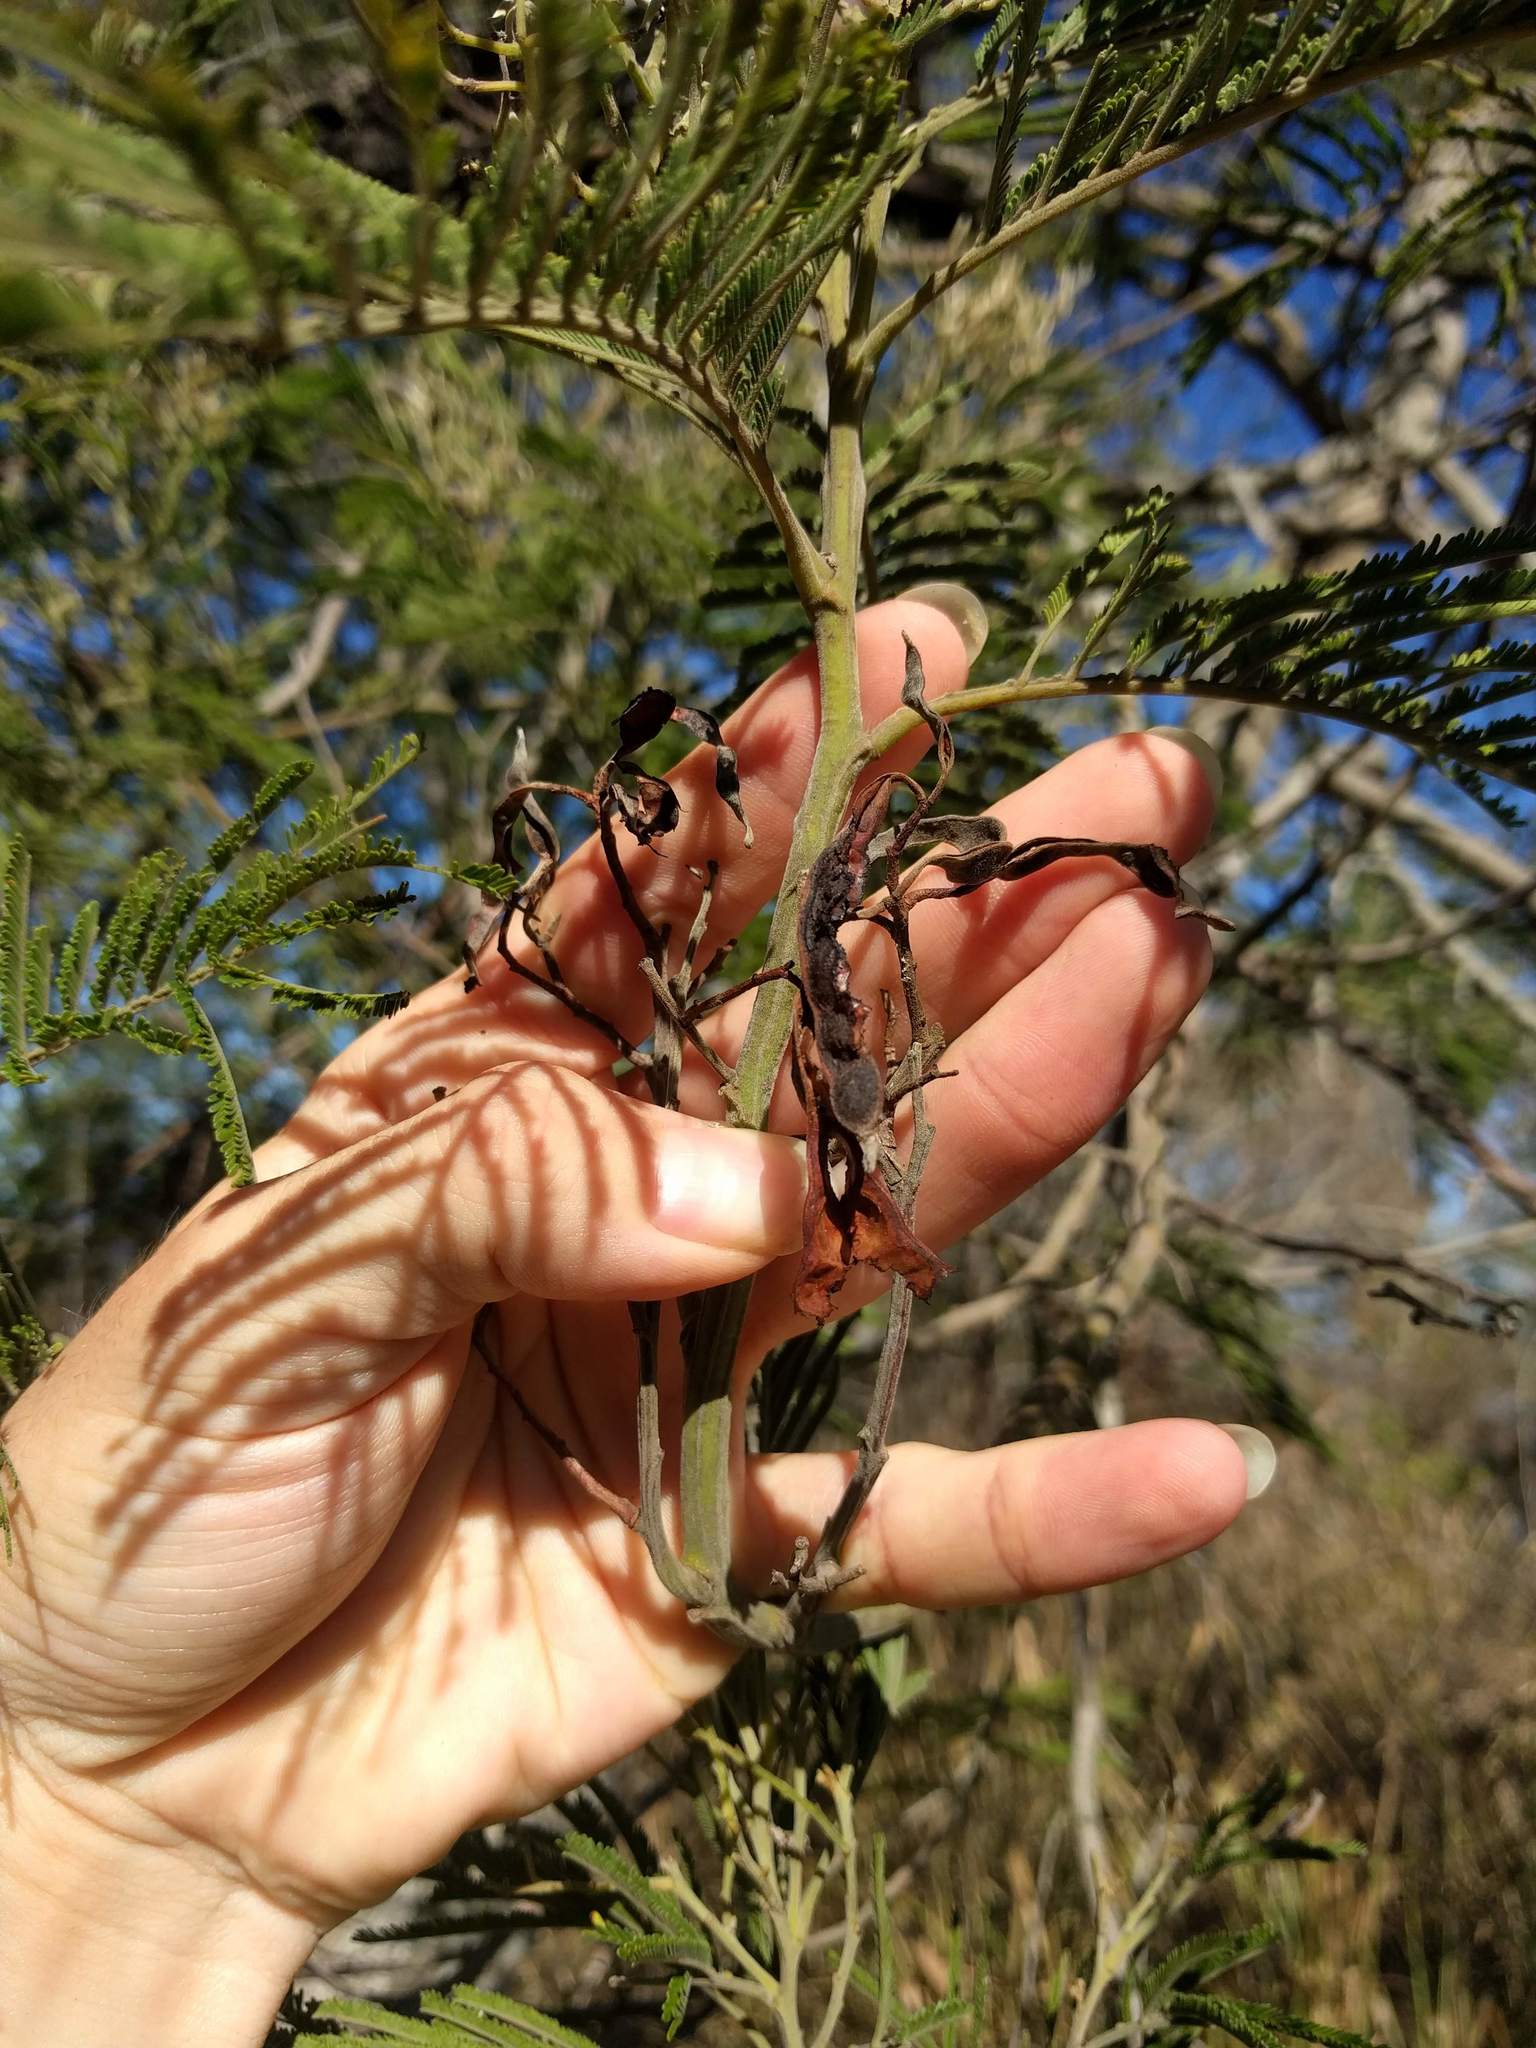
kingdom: Plantae
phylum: Tracheophyta
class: Magnoliopsida
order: Fabales
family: Fabaceae
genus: Acacia
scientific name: Acacia mearnsii
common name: Black wattle
